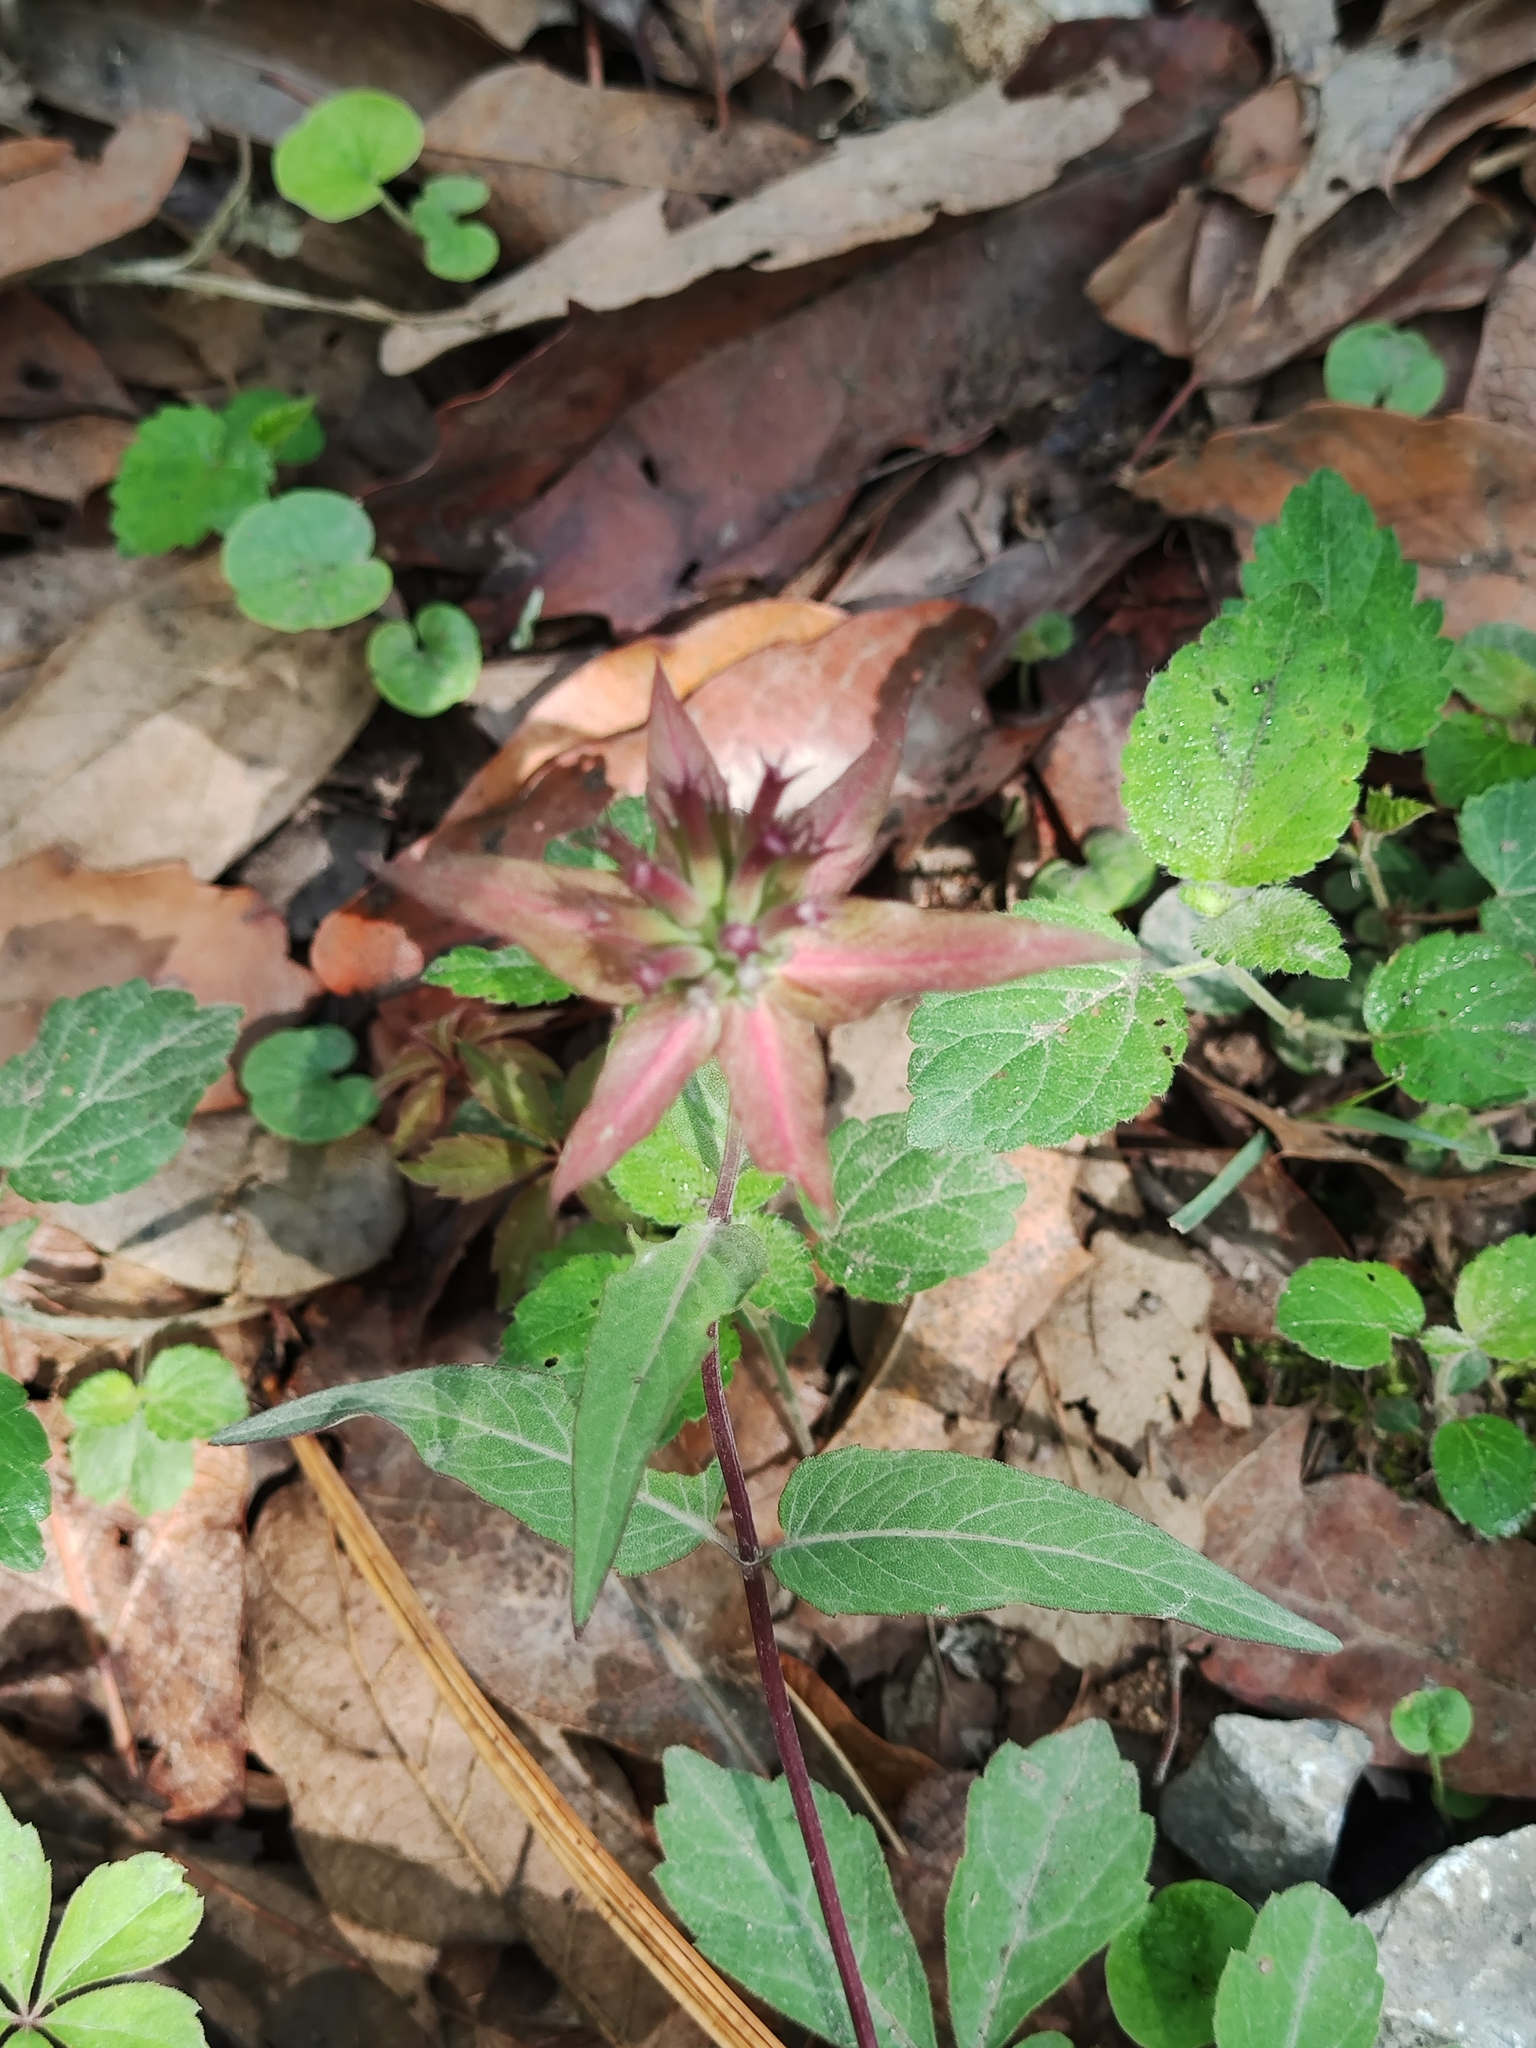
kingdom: Plantae
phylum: Tracheophyta
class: Magnoliopsida
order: Lamiales
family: Lamiaceae
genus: Monarda
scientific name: Monarda pringlei
